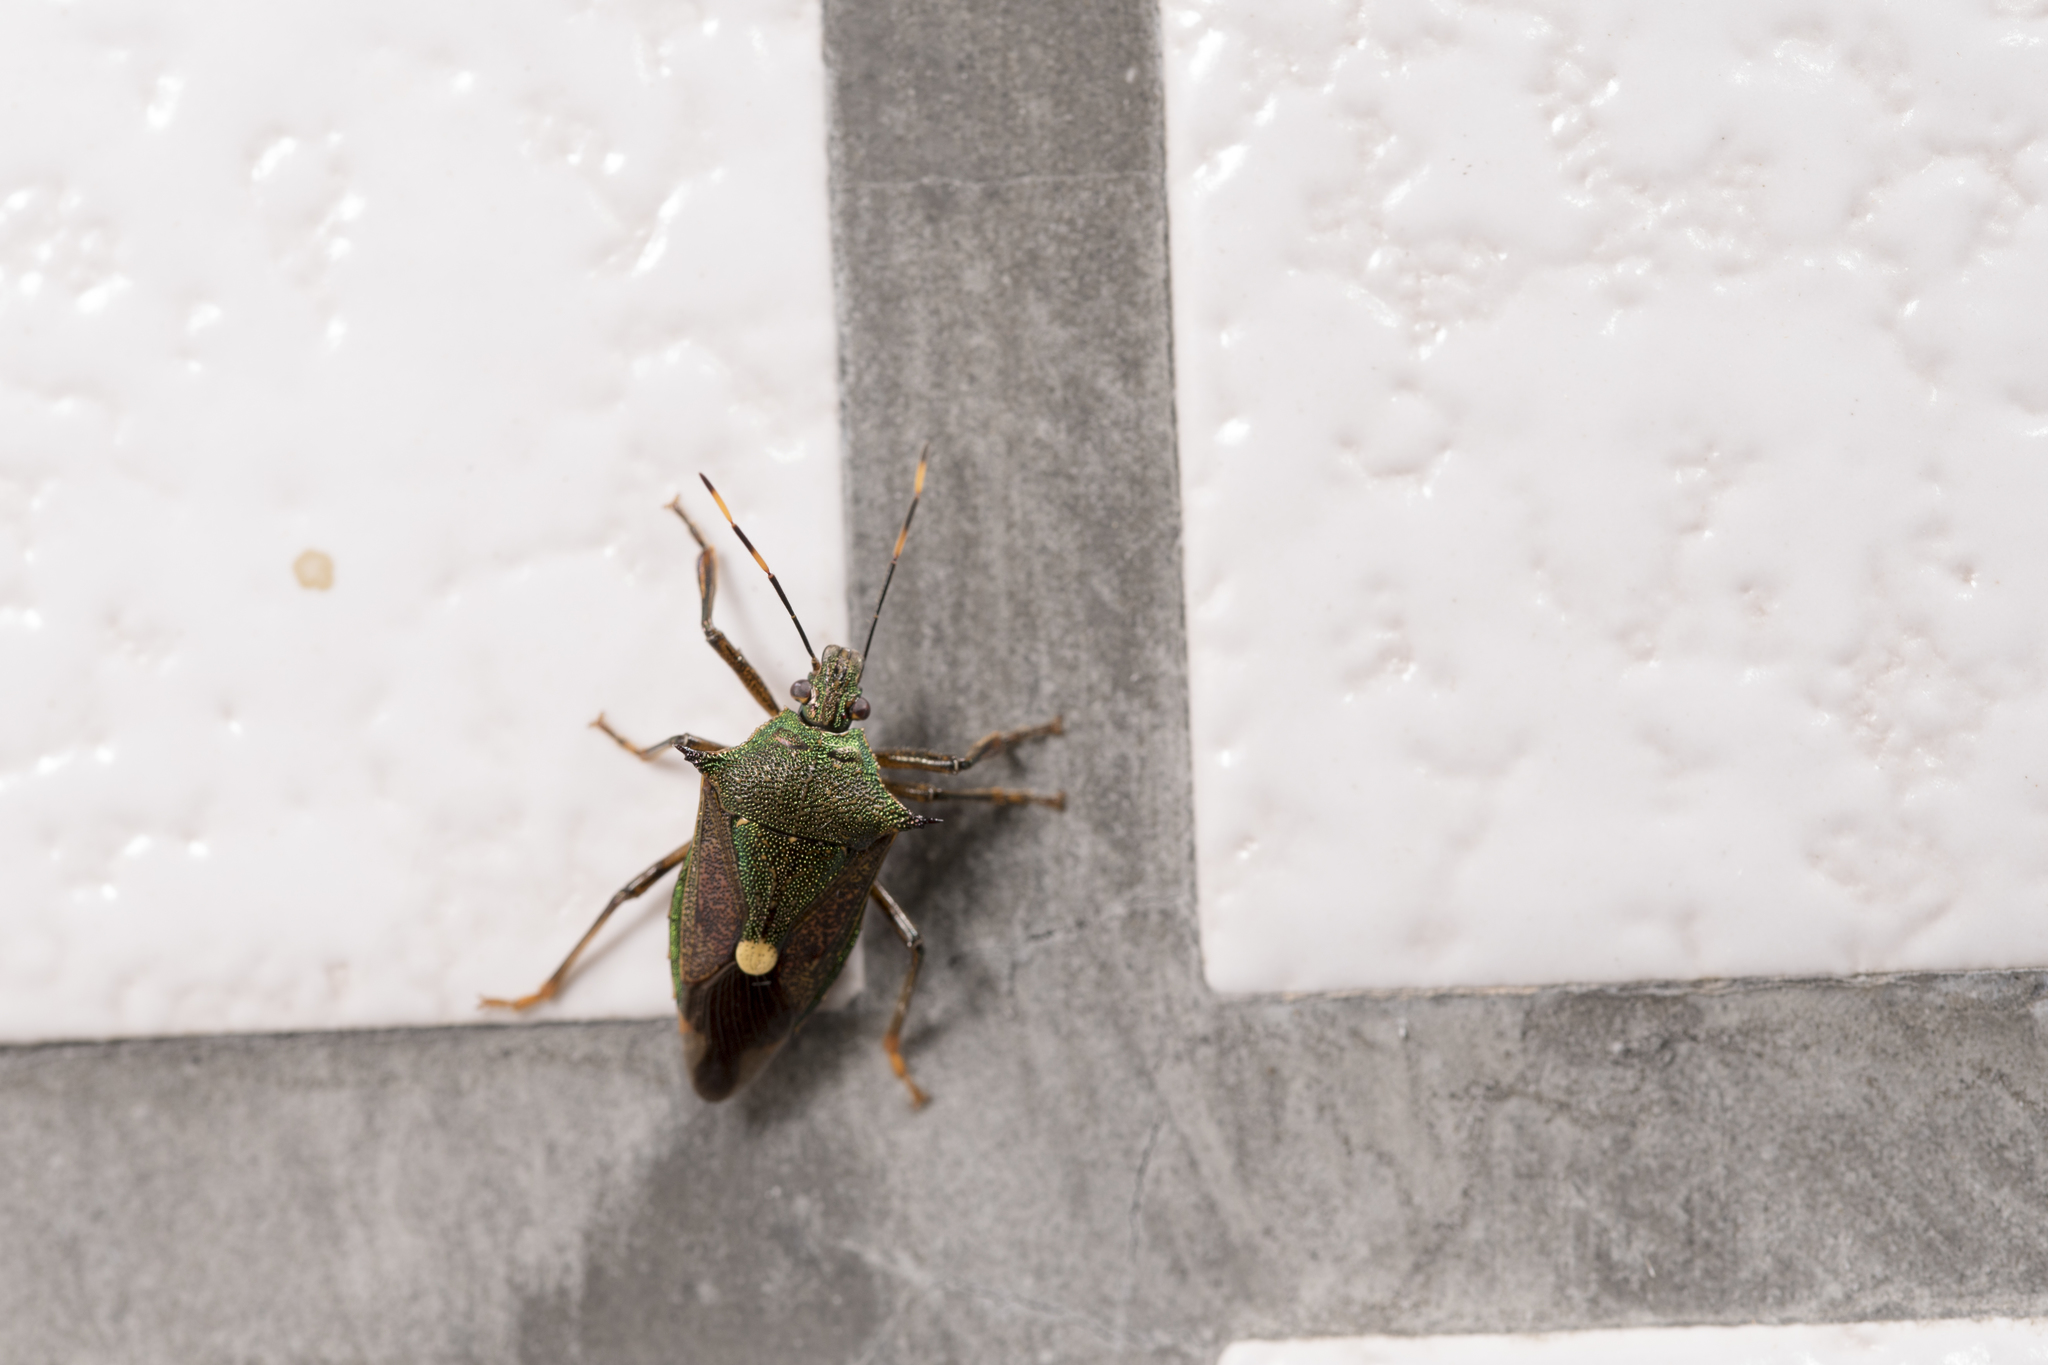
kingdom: Animalia
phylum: Arthropoda
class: Insecta
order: Hemiptera
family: Pentatomidae
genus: Eocanthecona
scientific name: Eocanthecona formosa
